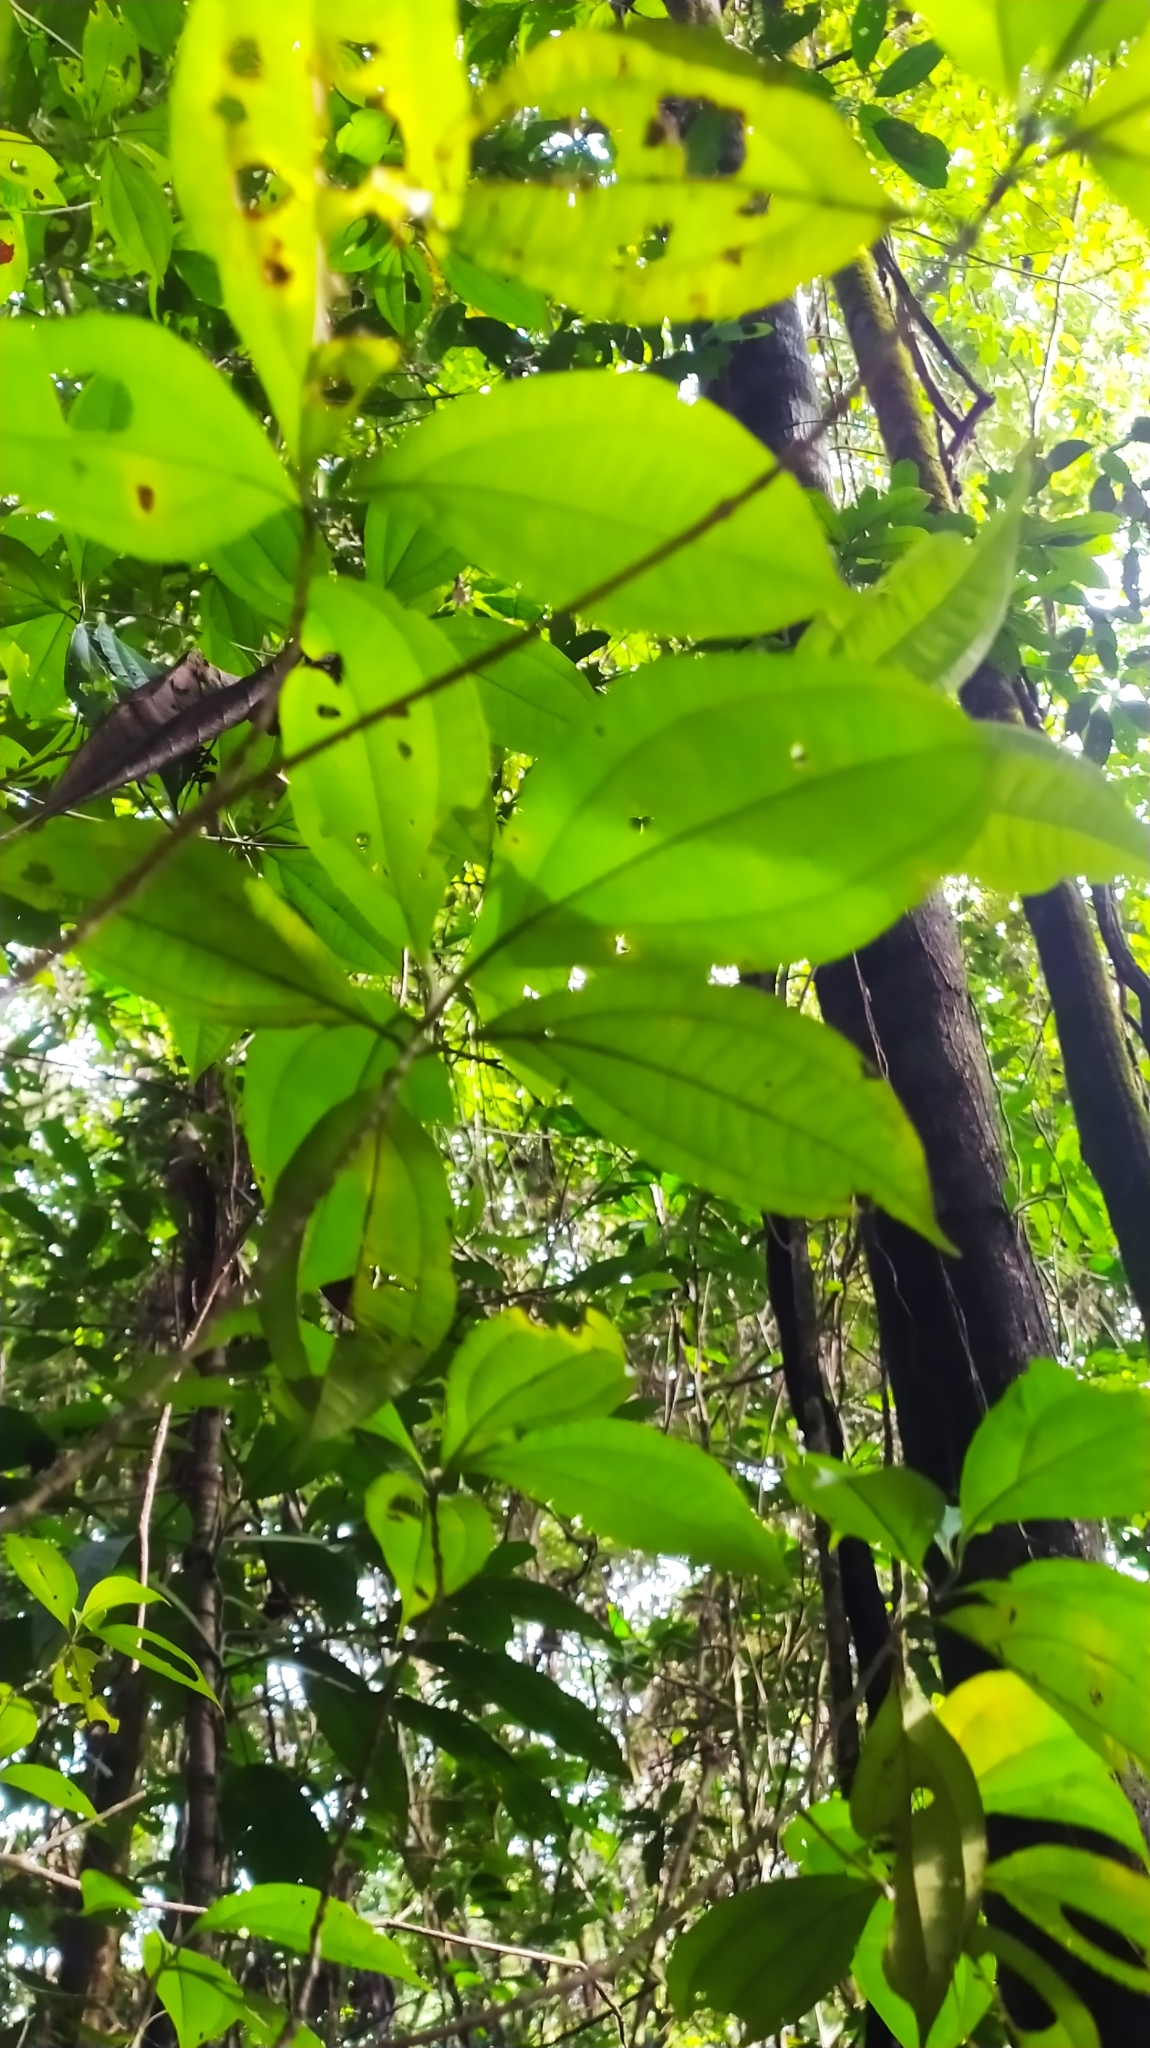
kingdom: Plantae
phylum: Tracheophyta
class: Magnoliopsida
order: Myrtales
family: Melastomataceae
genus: Henriettea
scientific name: Henriettea flavescens
